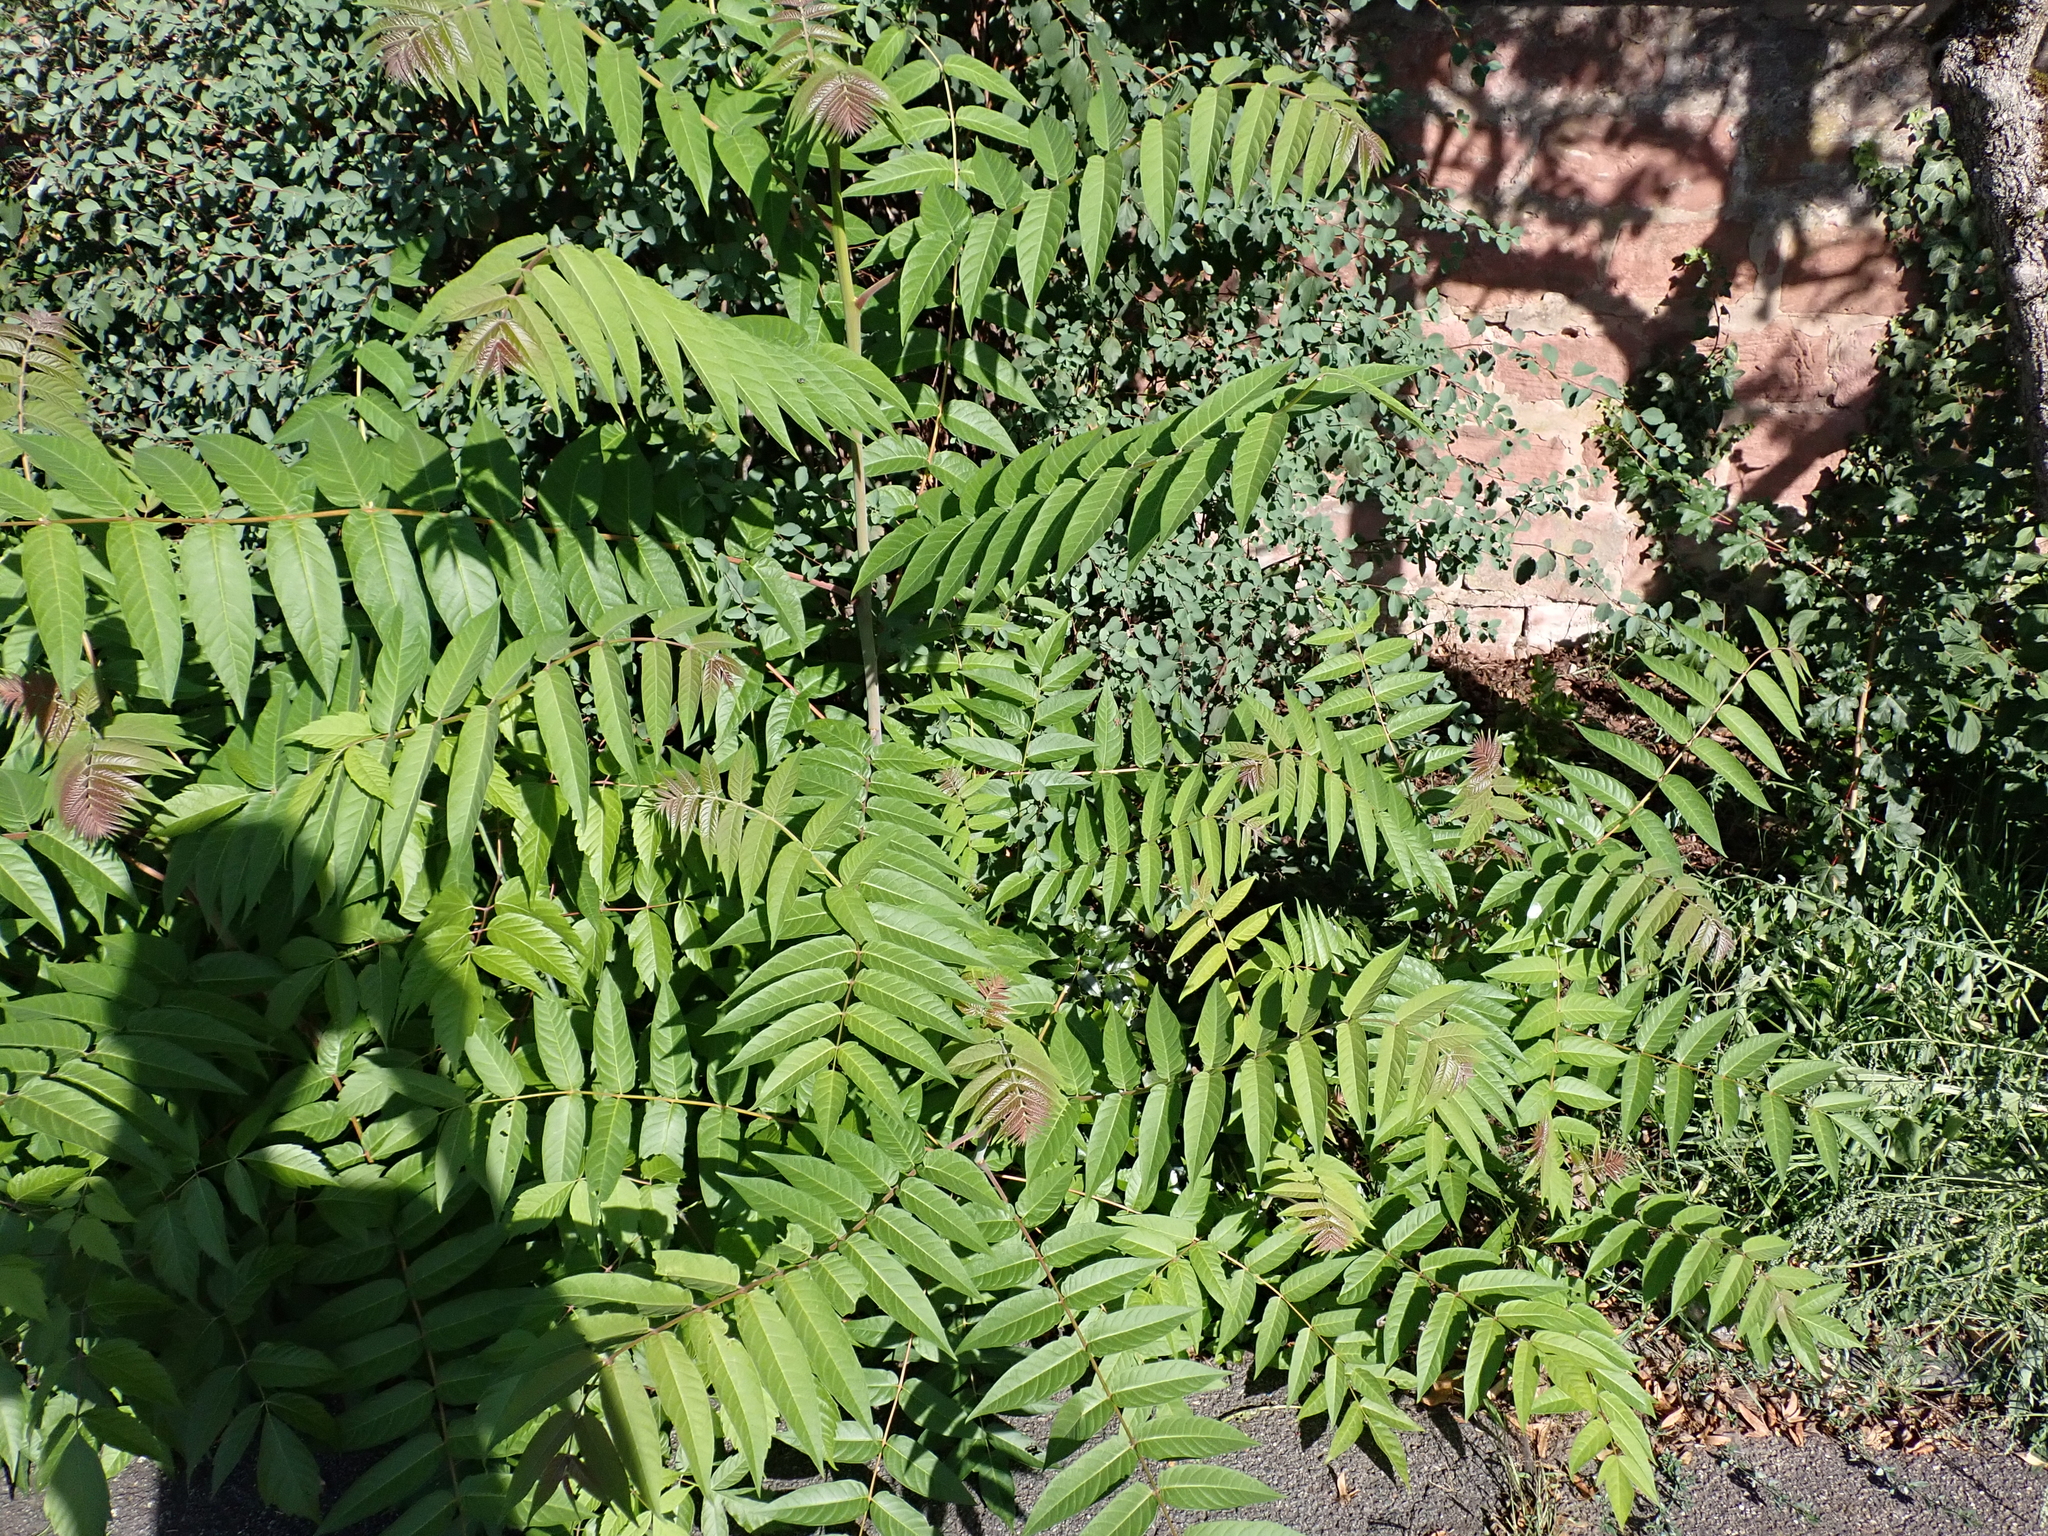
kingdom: Plantae
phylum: Tracheophyta
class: Magnoliopsida
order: Sapindales
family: Simaroubaceae
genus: Ailanthus
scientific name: Ailanthus altissima
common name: Tree-of-heaven
